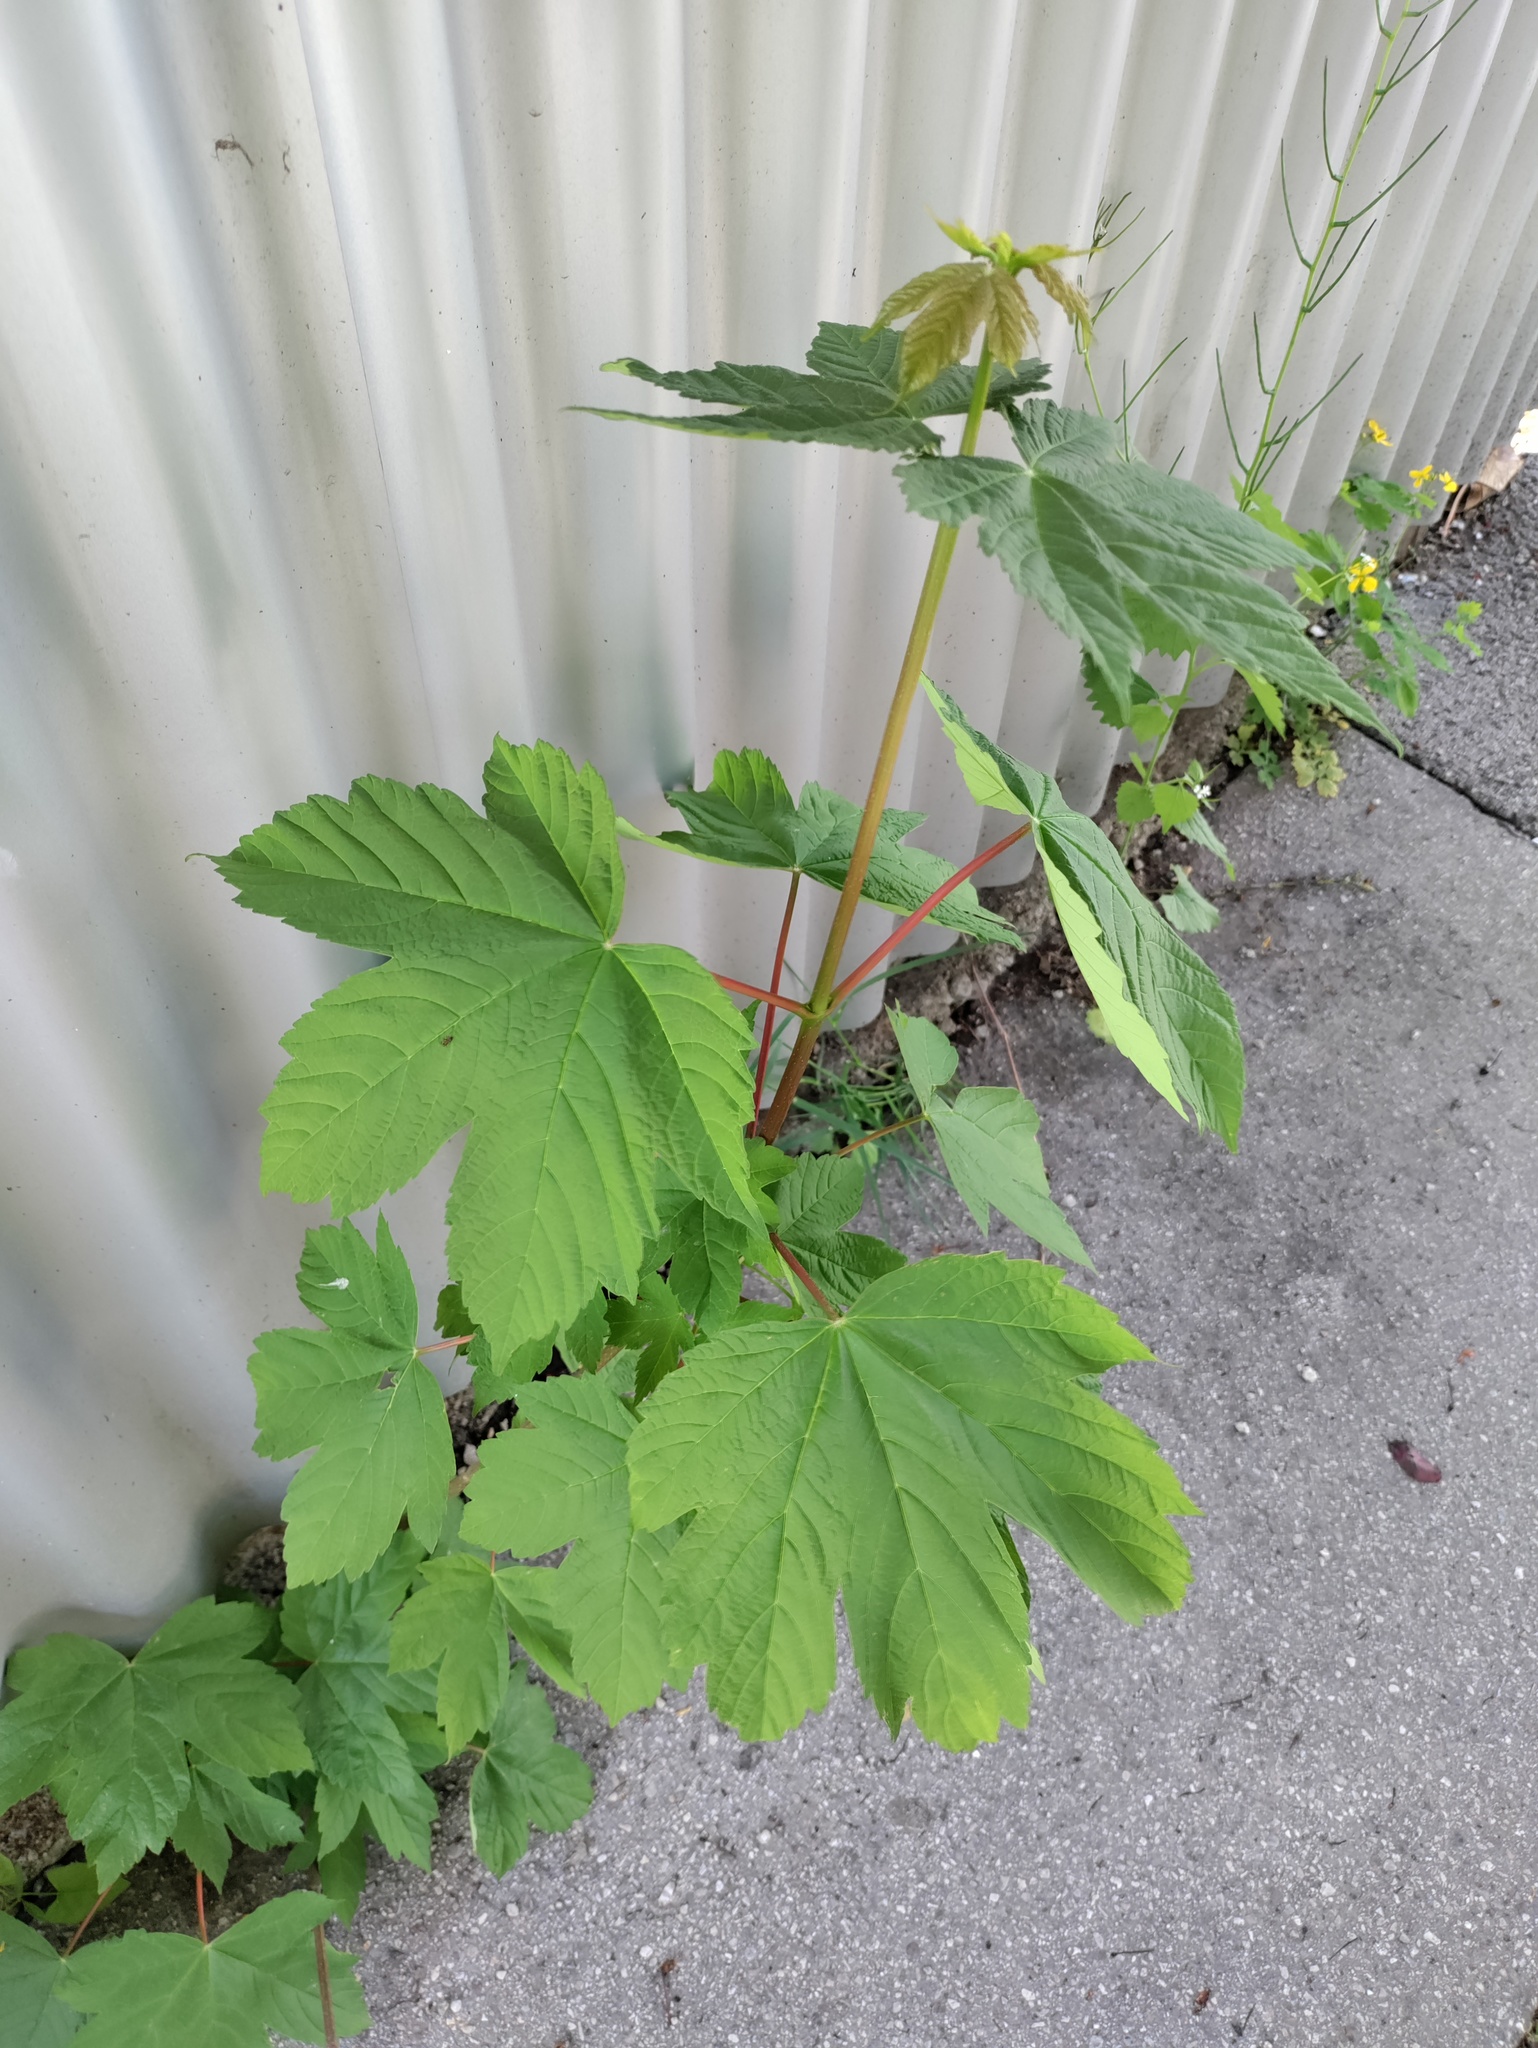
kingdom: Plantae
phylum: Tracheophyta
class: Magnoliopsida
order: Sapindales
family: Sapindaceae
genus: Acer
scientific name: Acer pseudoplatanus
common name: Sycamore
